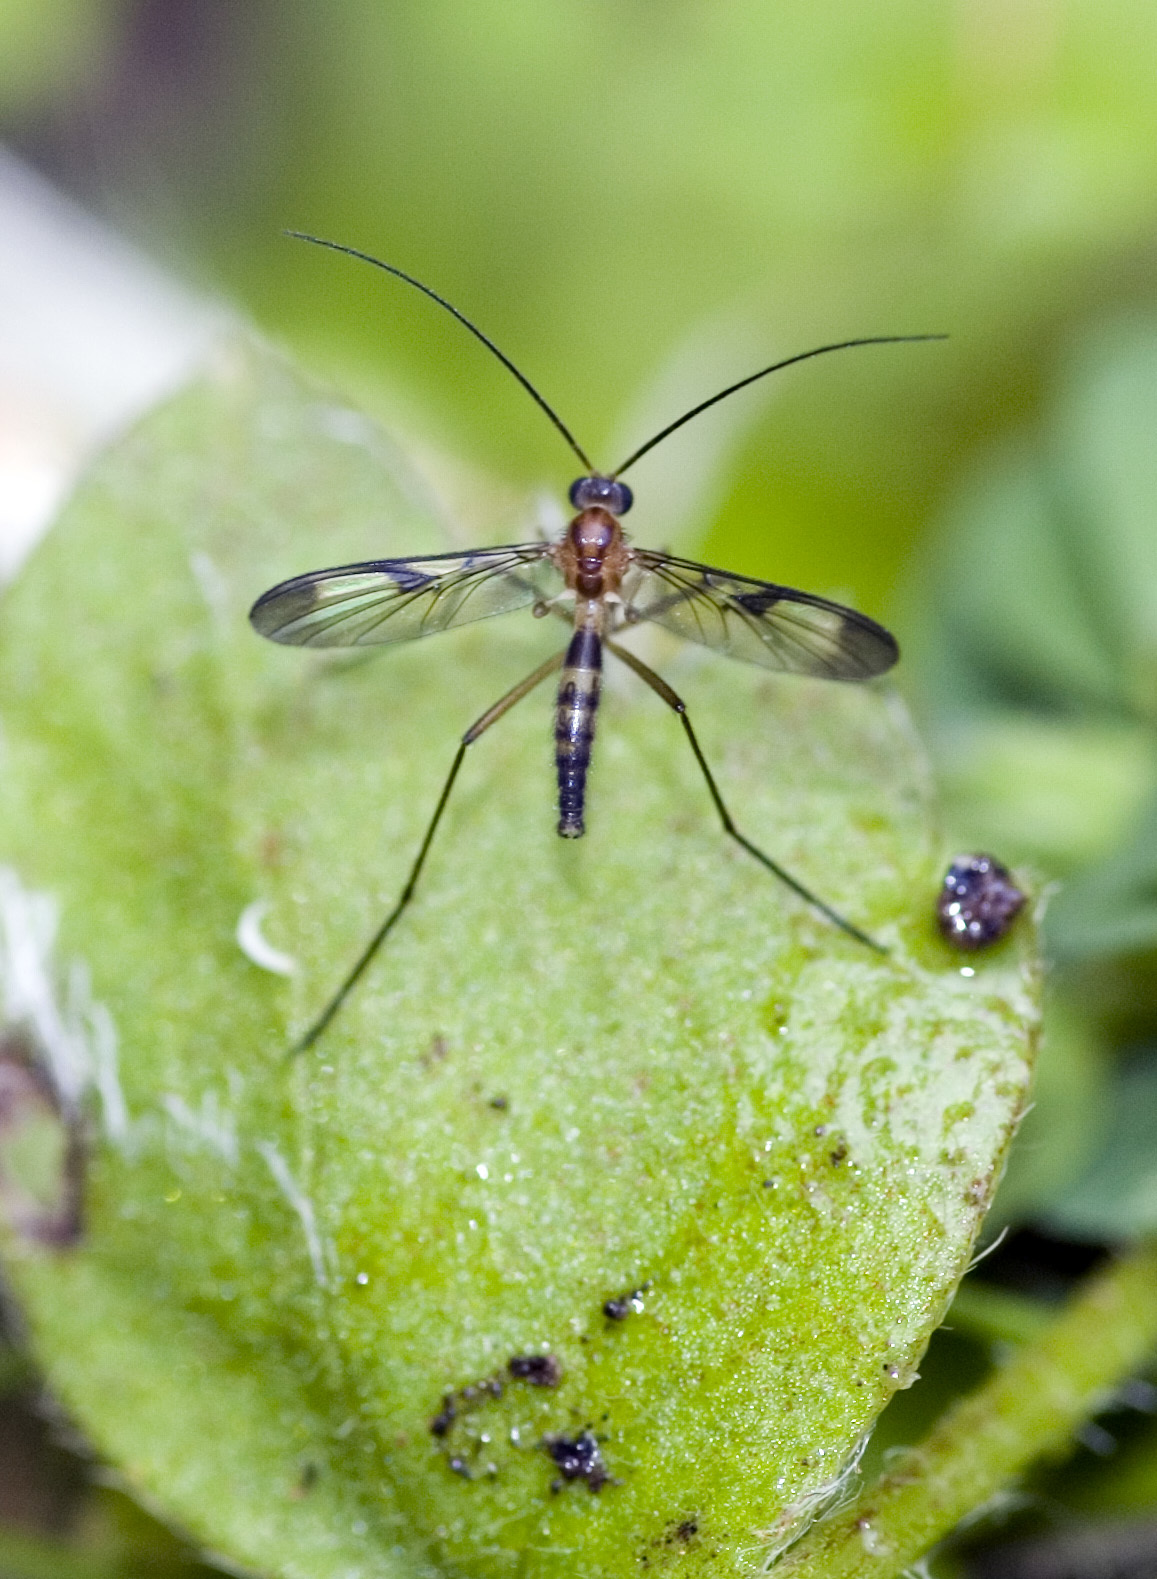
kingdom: Animalia
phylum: Arthropoda
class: Insecta
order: Diptera
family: Keroplatidae
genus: Macrocera
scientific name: Macrocera scoparia
